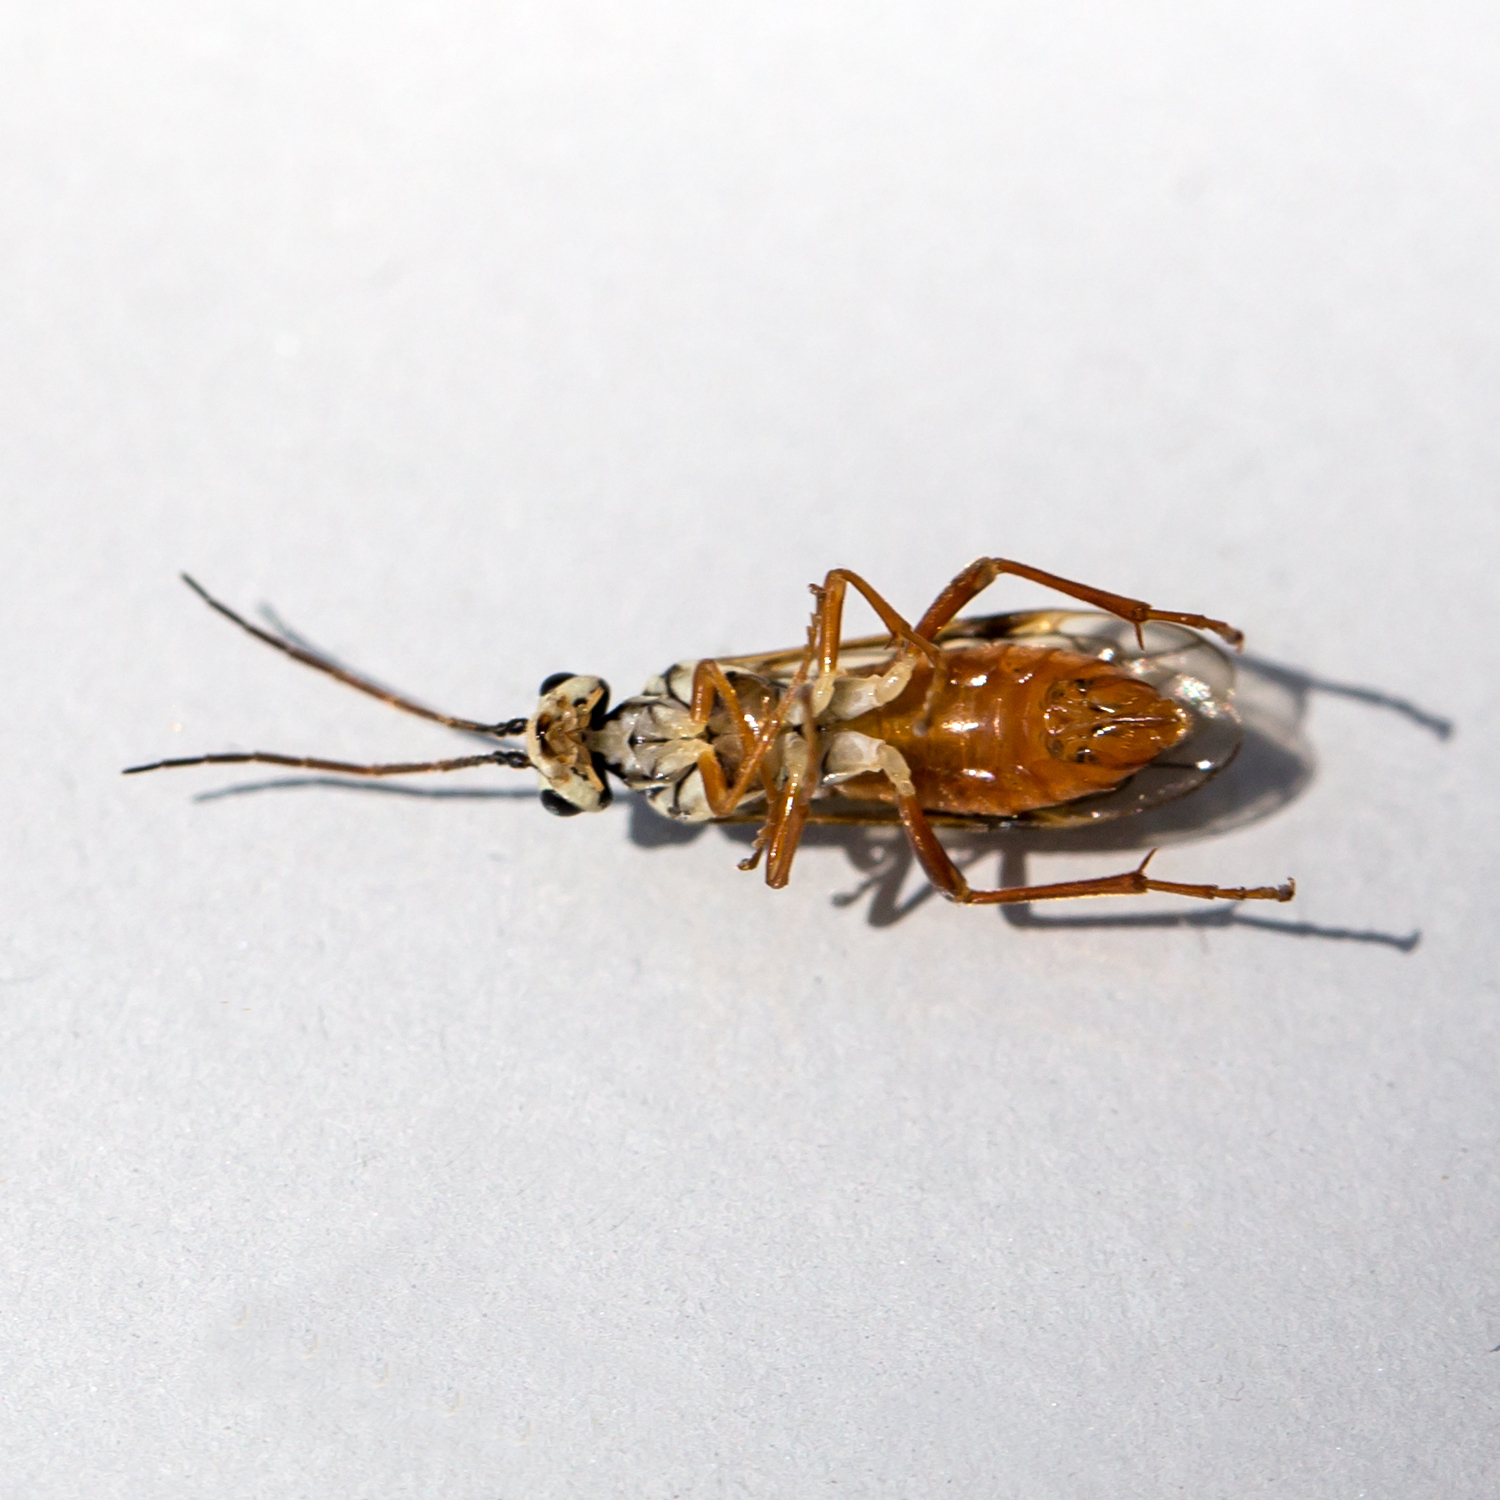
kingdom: Animalia
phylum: Arthropoda
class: Insecta
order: Hymenoptera
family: Tenthredinidae
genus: Aglaostigma
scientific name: Aglaostigma
